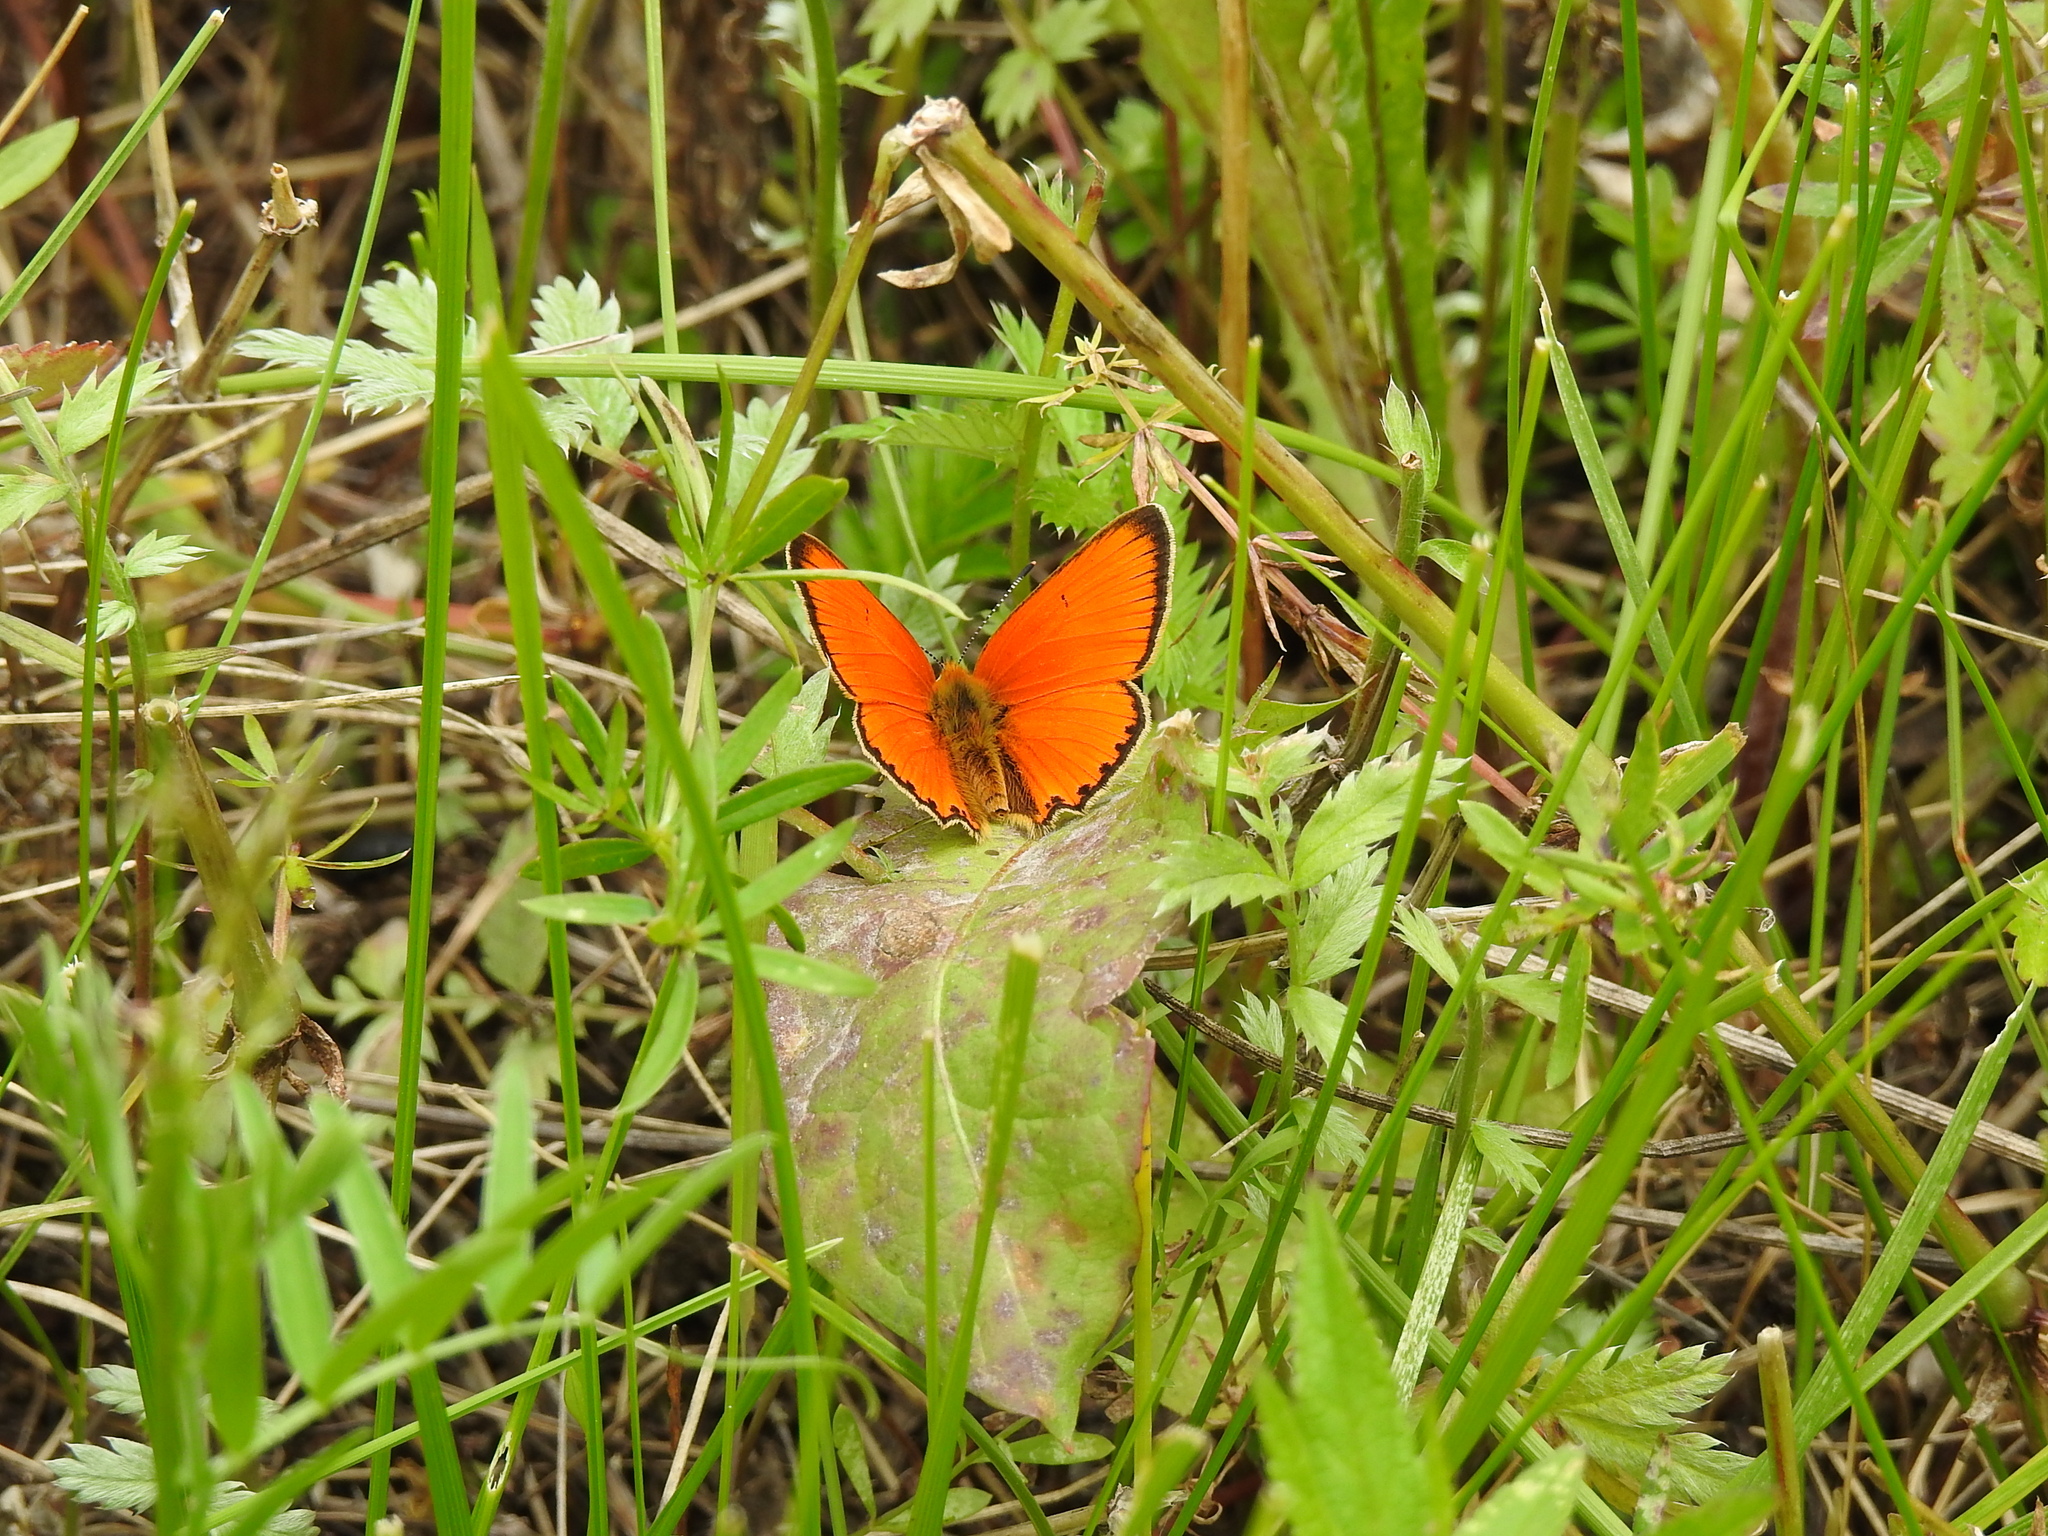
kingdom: Animalia
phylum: Arthropoda
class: Insecta
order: Lepidoptera
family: Lycaenidae
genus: Lycaena
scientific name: Lycaena virgaureae
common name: Scarce copper
